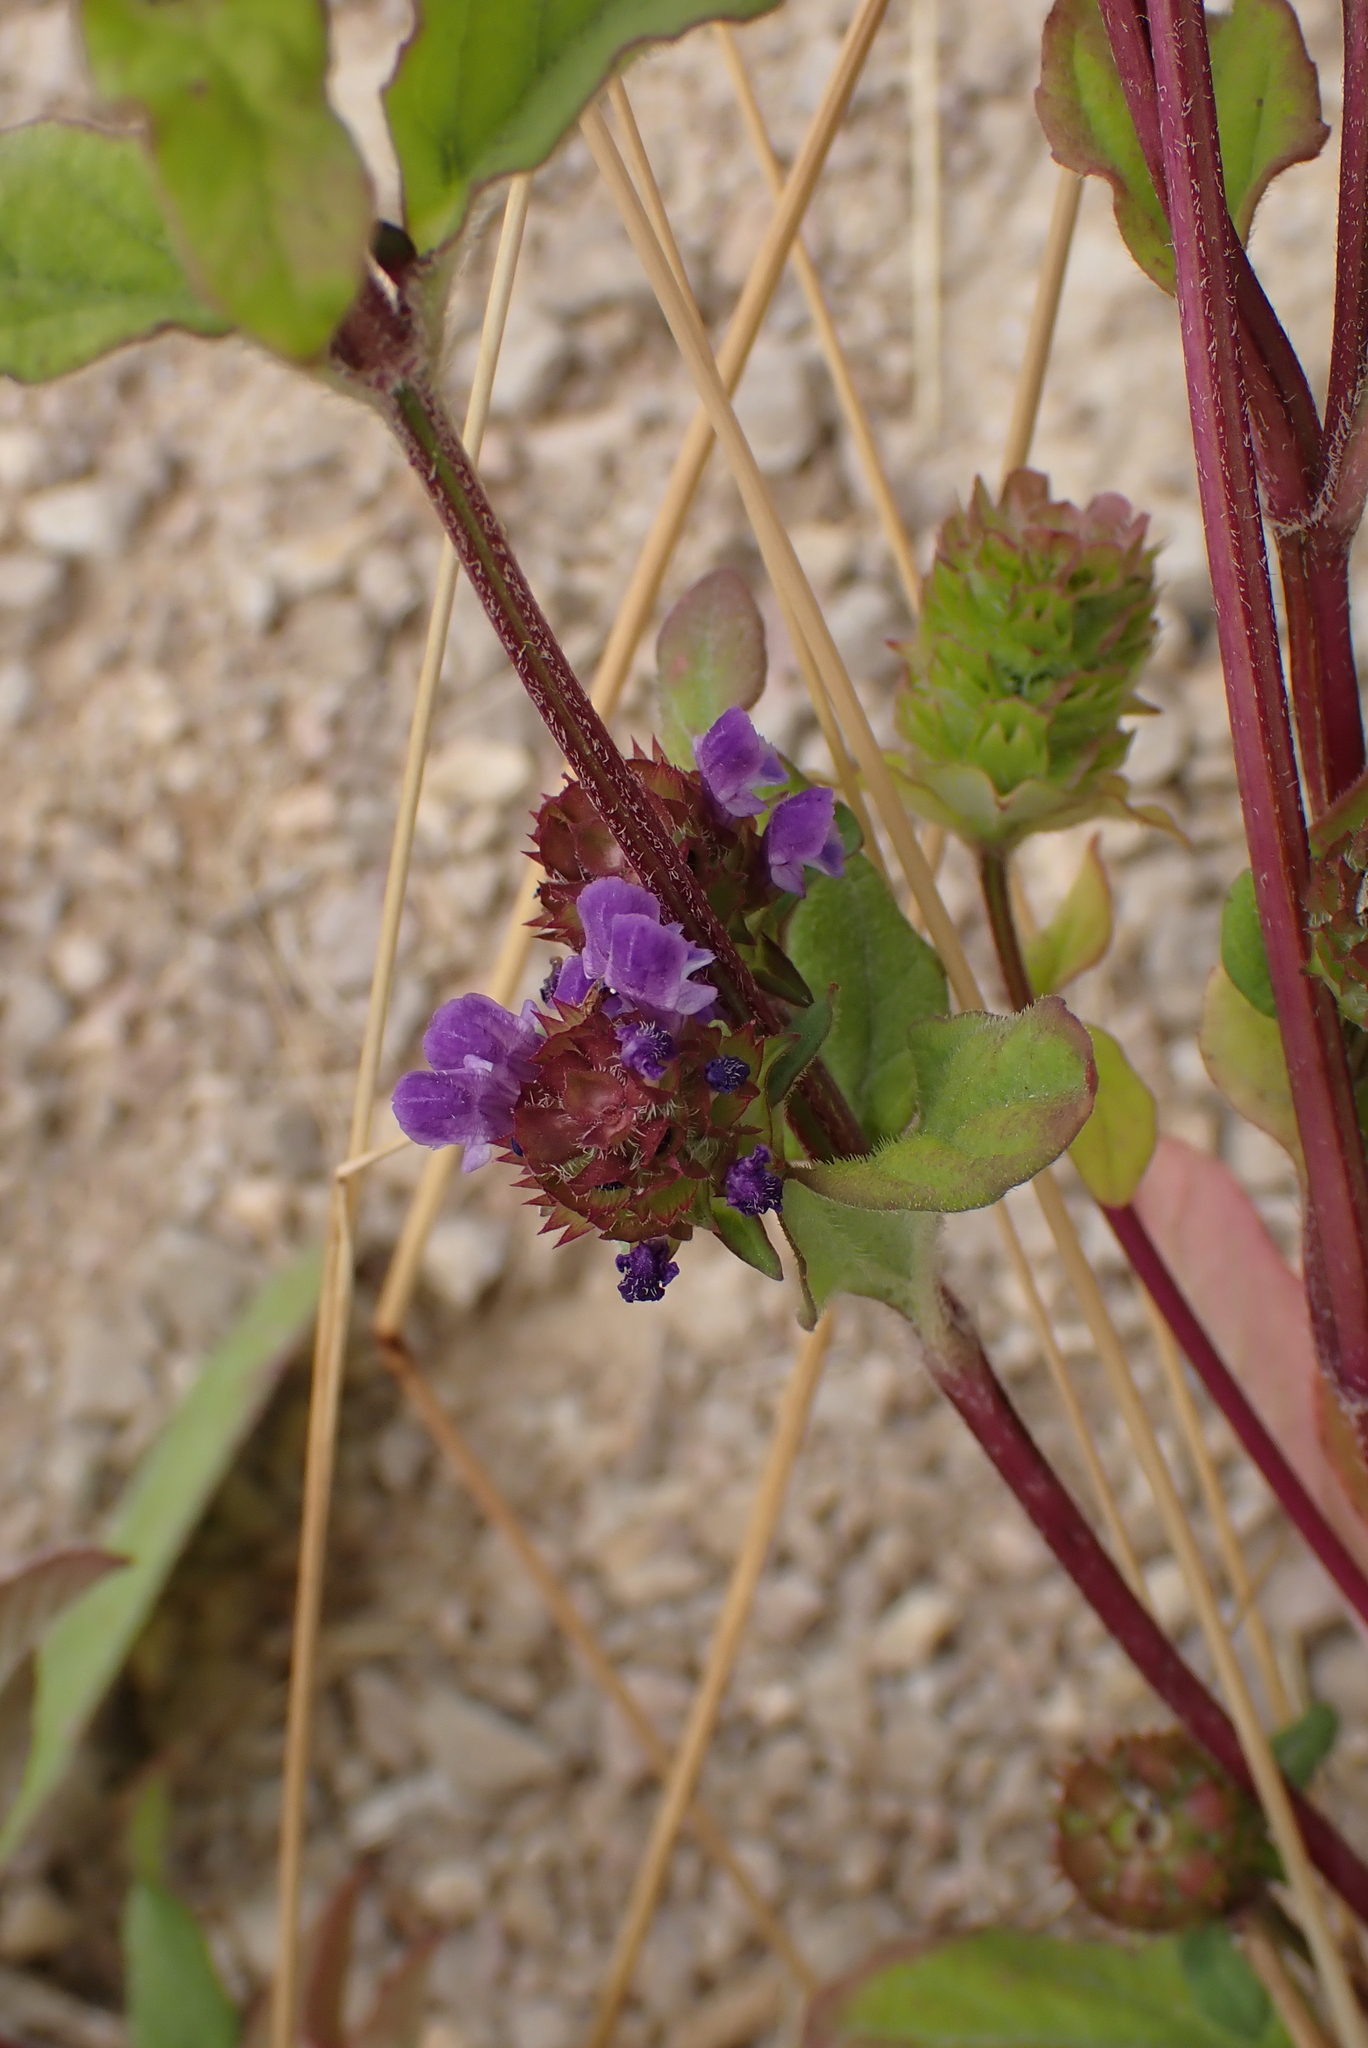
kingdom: Plantae
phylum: Tracheophyta
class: Magnoliopsida
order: Lamiales
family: Lamiaceae
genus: Prunella
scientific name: Prunella vulgaris
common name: Heal-all
